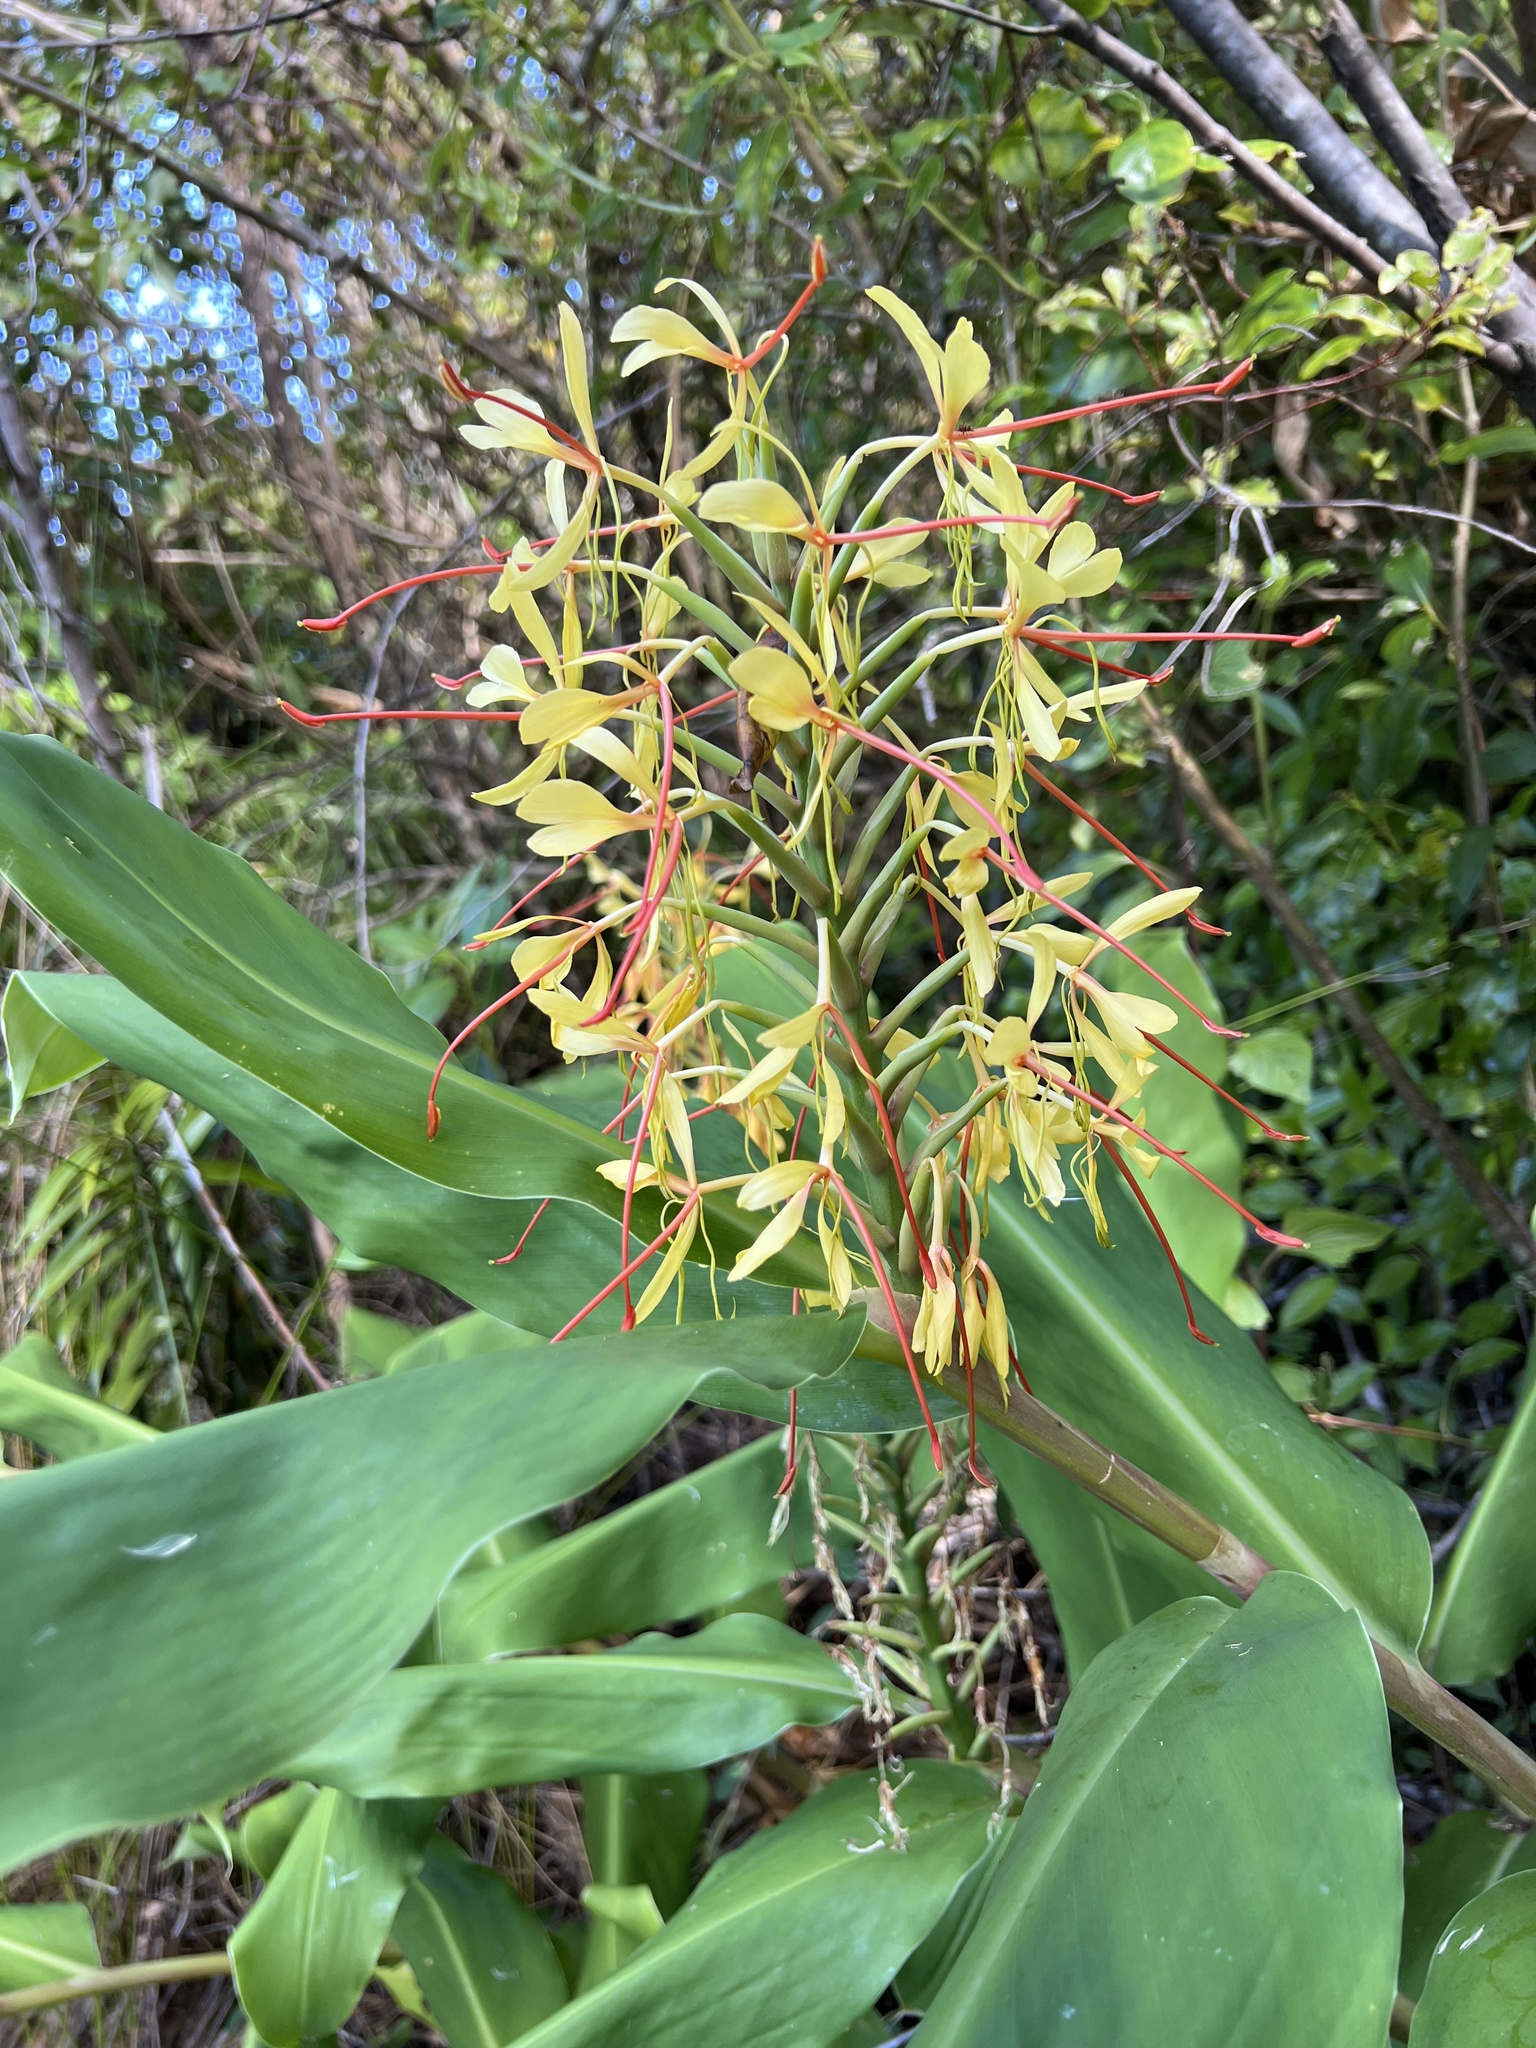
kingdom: Plantae
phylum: Tracheophyta
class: Liliopsida
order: Zingiberales
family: Zingiberaceae
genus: Hedychium
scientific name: Hedychium gardnerianum
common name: Himalayan ginger
